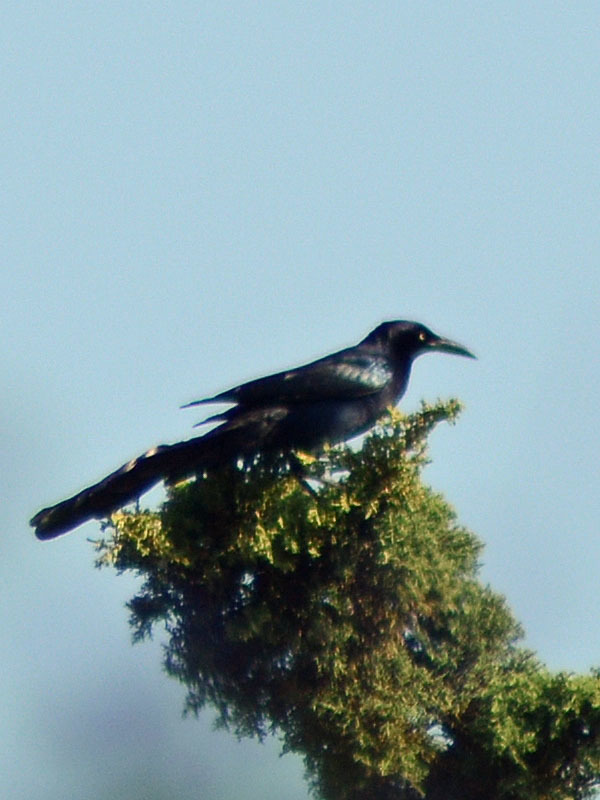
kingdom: Animalia
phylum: Chordata
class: Aves
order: Passeriformes
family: Icteridae
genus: Quiscalus
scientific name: Quiscalus mexicanus
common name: Great-tailed grackle
